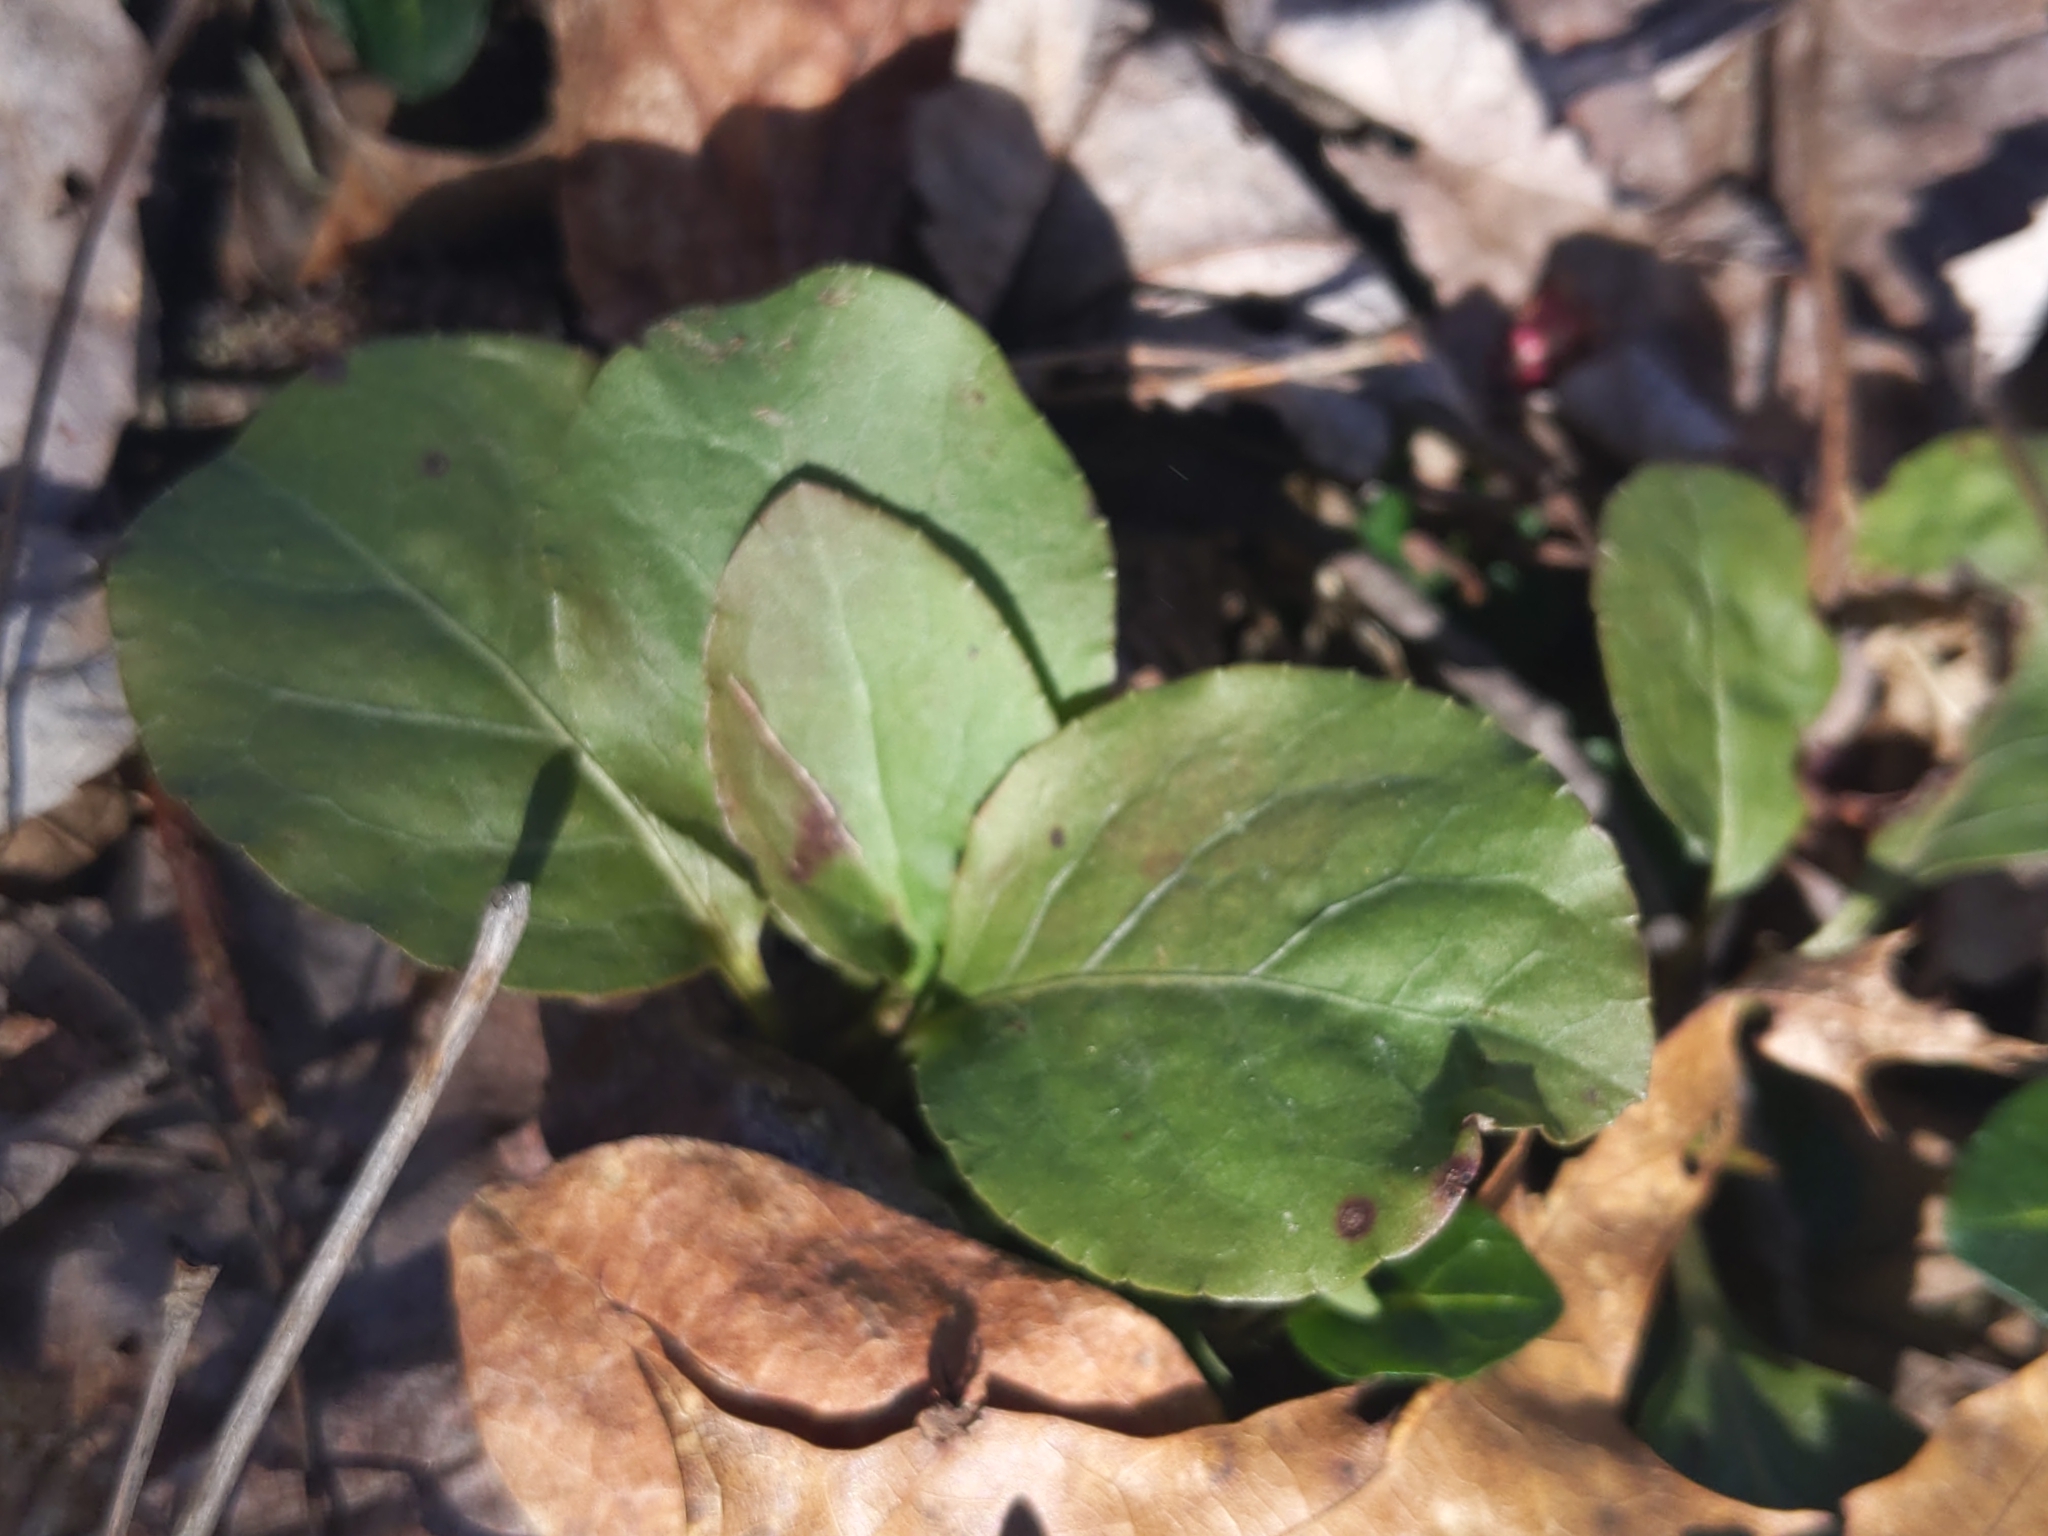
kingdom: Plantae
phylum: Tracheophyta
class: Magnoliopsida
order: Ericales
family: Ericaceae
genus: Pyrola
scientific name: Pyrola elliptica
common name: Shinleaf
